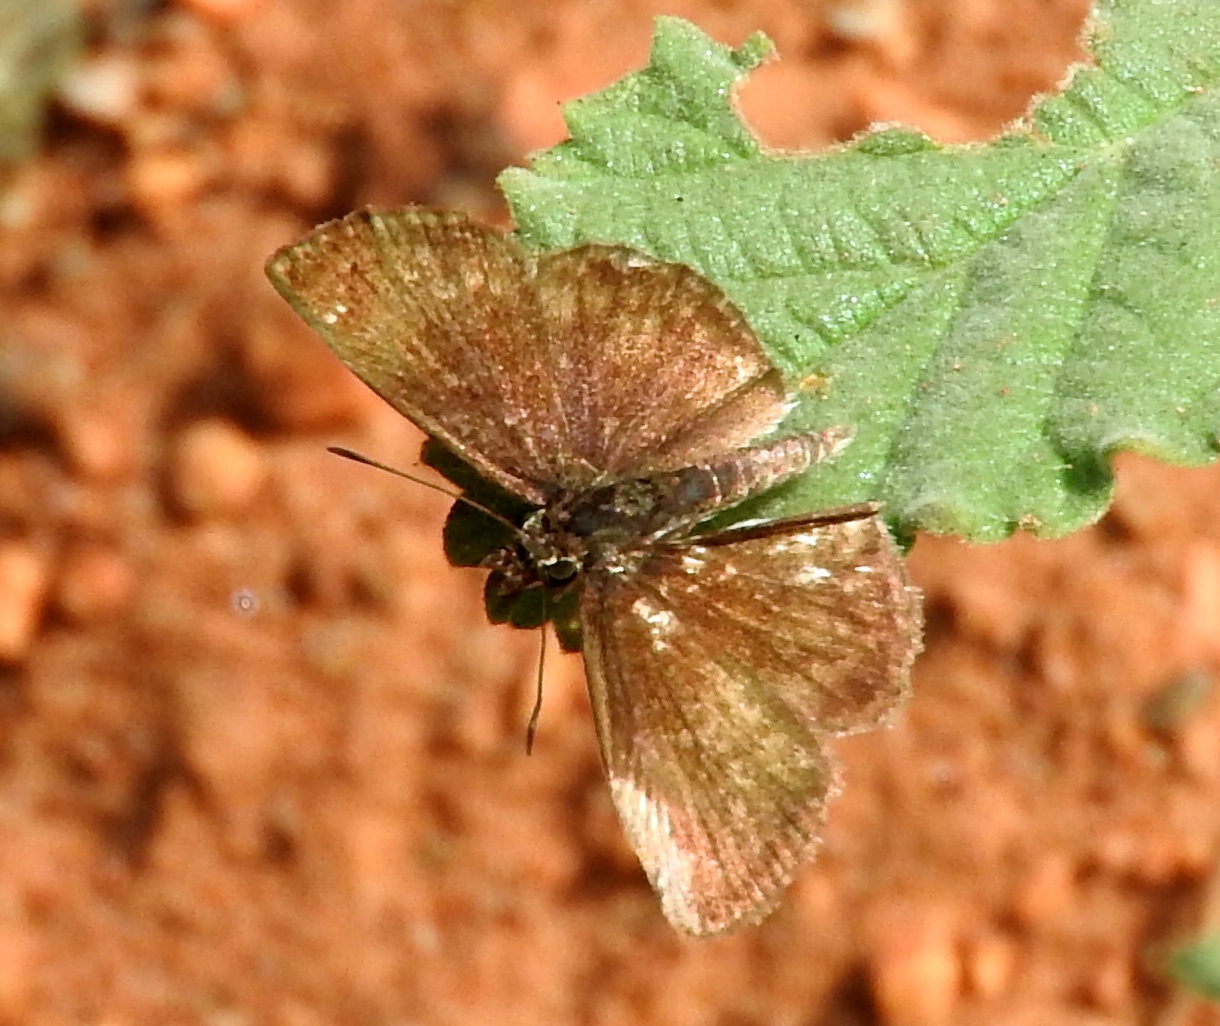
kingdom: Animalia
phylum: Arthropoda
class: Insecta
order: Lepidoptera
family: Hesperiidae
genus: Zopyrion
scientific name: Zopyrion sandace
